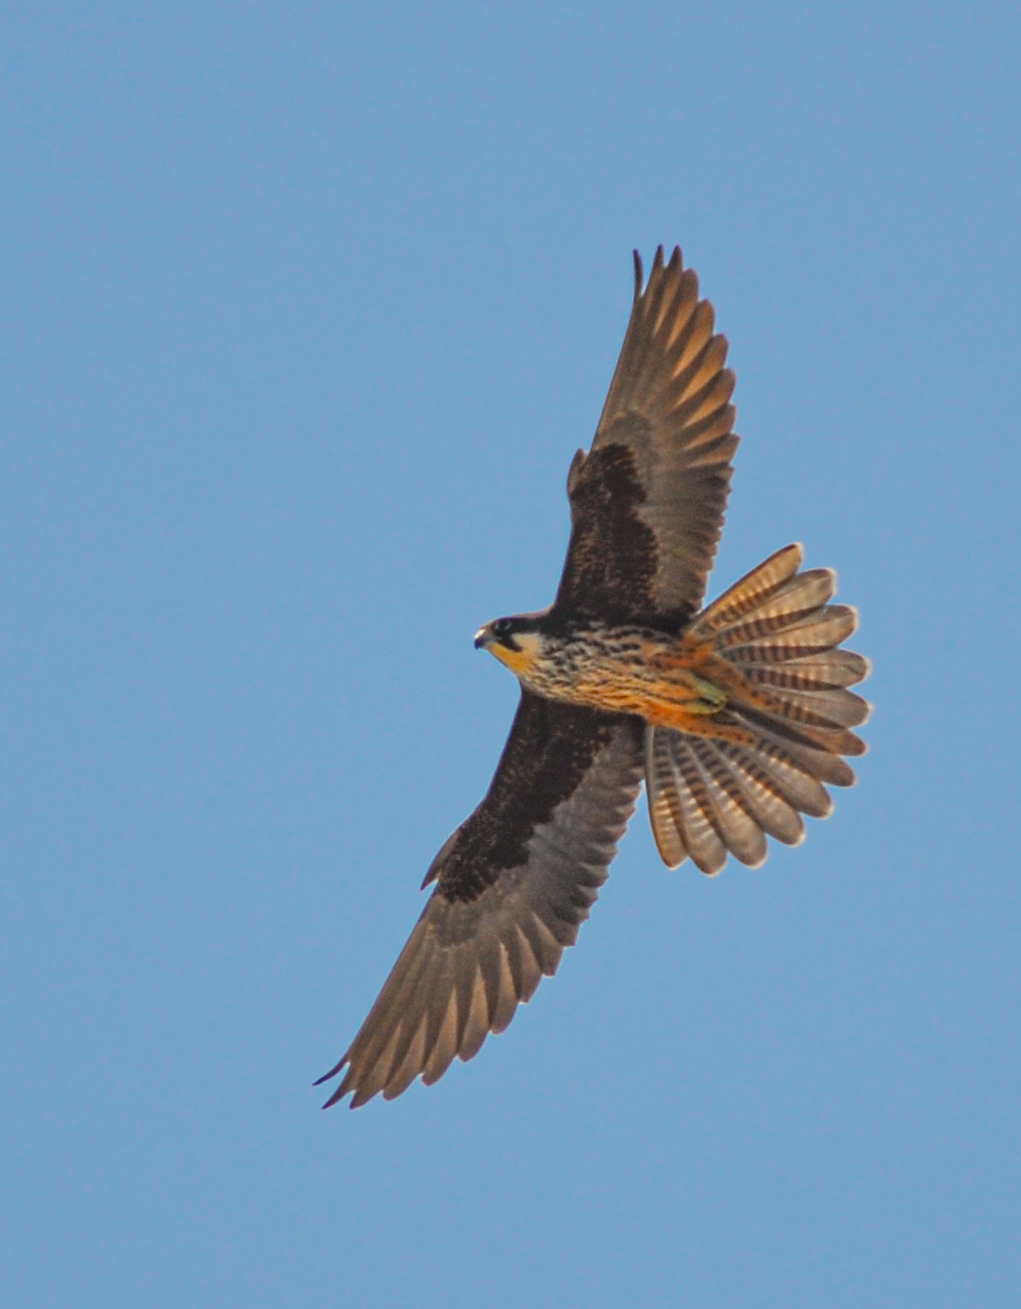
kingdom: Animalia
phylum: Chordata
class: Aves
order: Falconiformes
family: Falconidae
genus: Falco
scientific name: Falco eleonorae
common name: Eleonora's falcon
